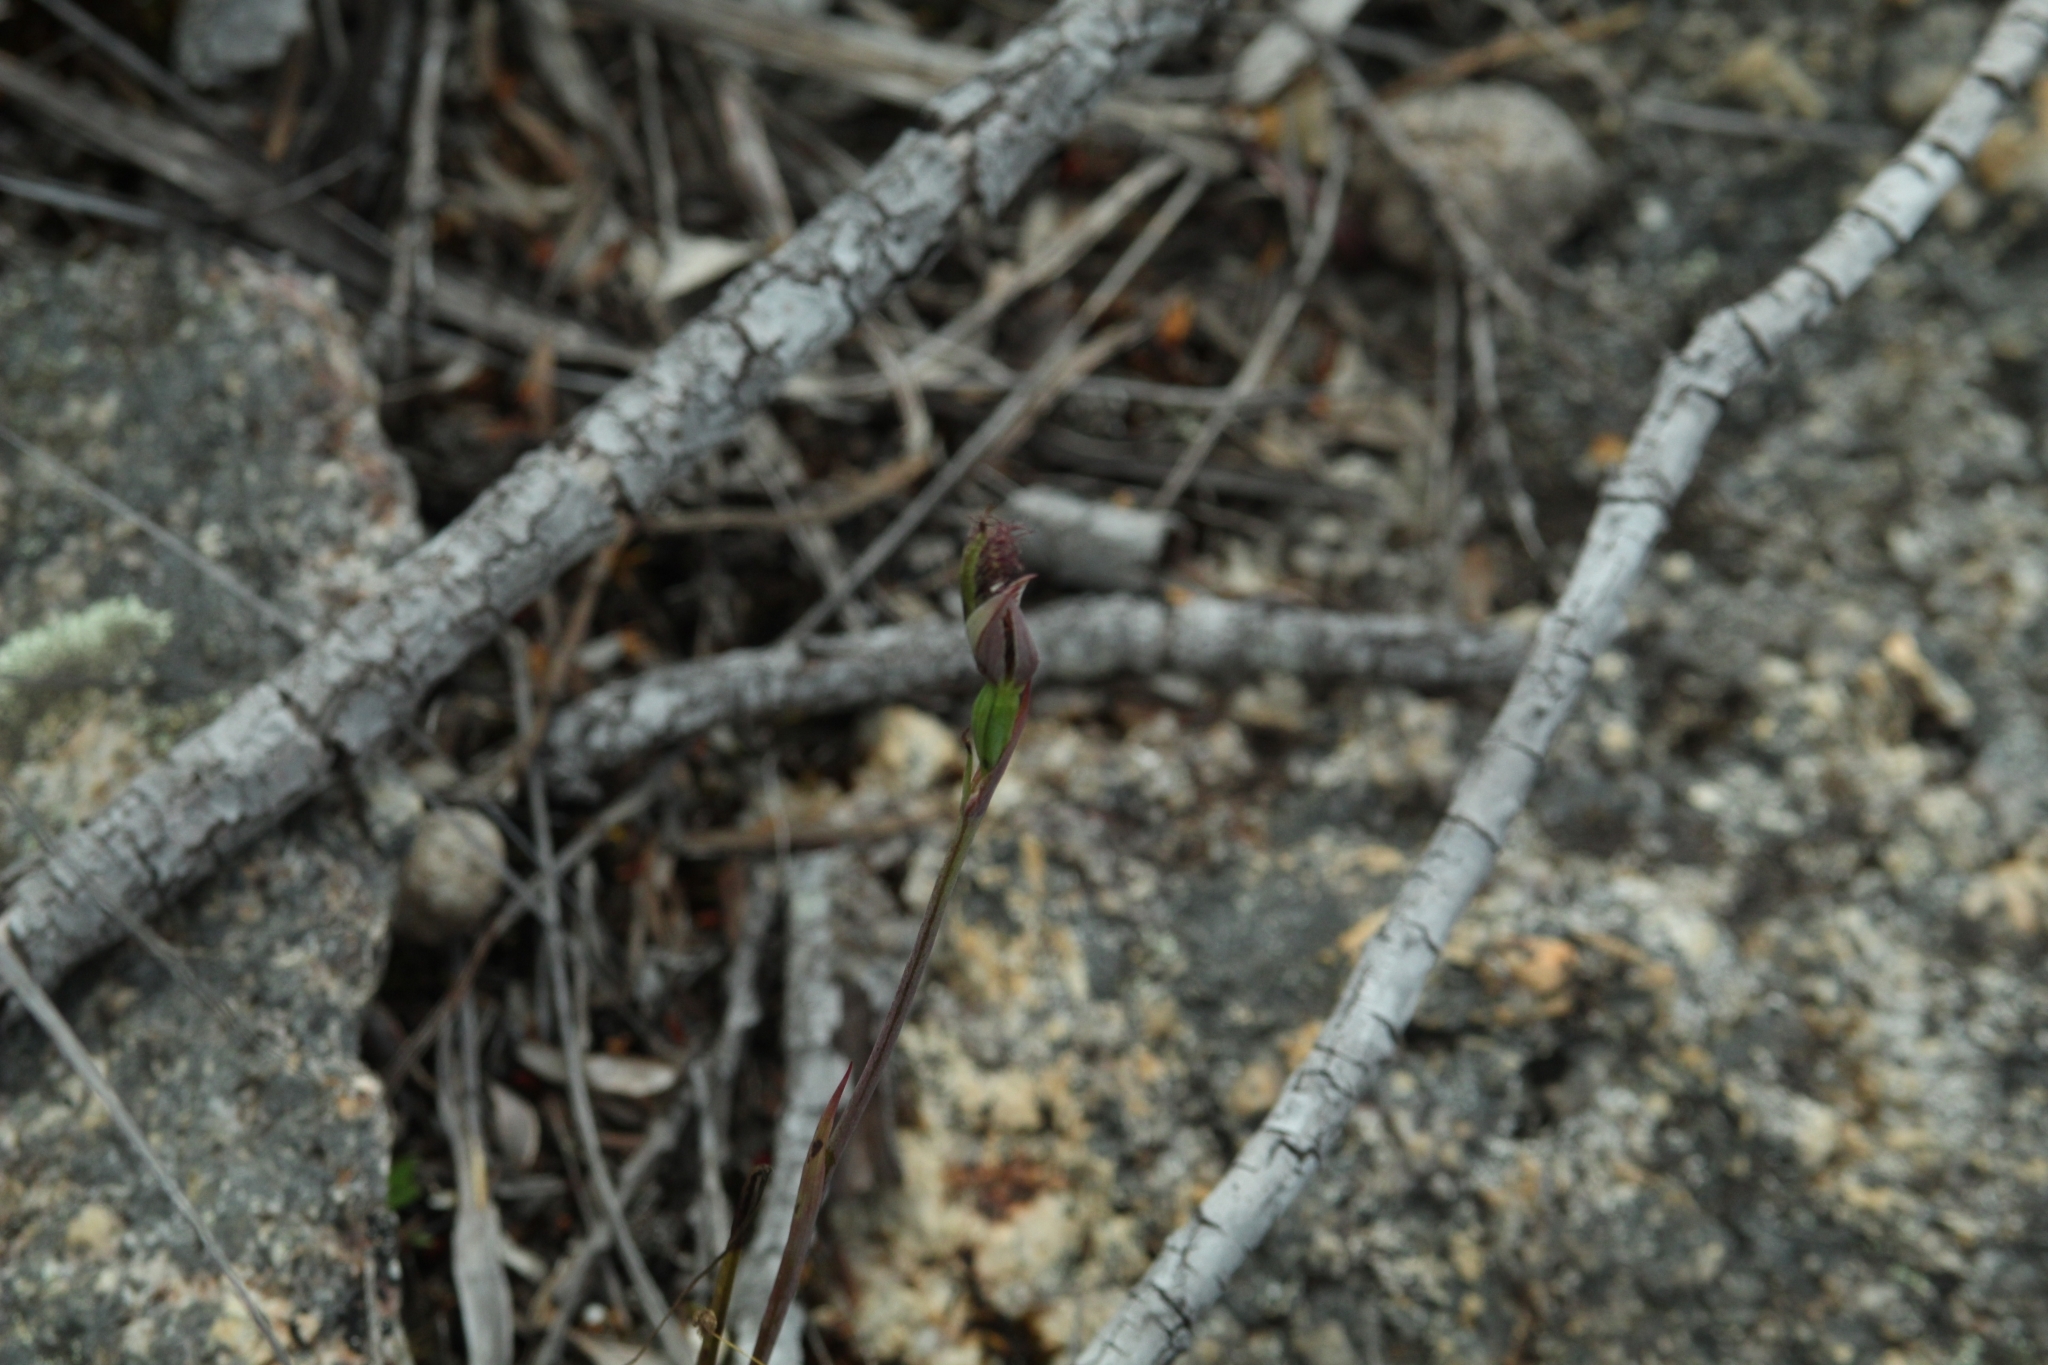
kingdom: Plantae
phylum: Tracheophyta
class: Liliopsida
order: Asparagales
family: Orchidaceae
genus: Calochilus
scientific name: Calochilus uliginosus
